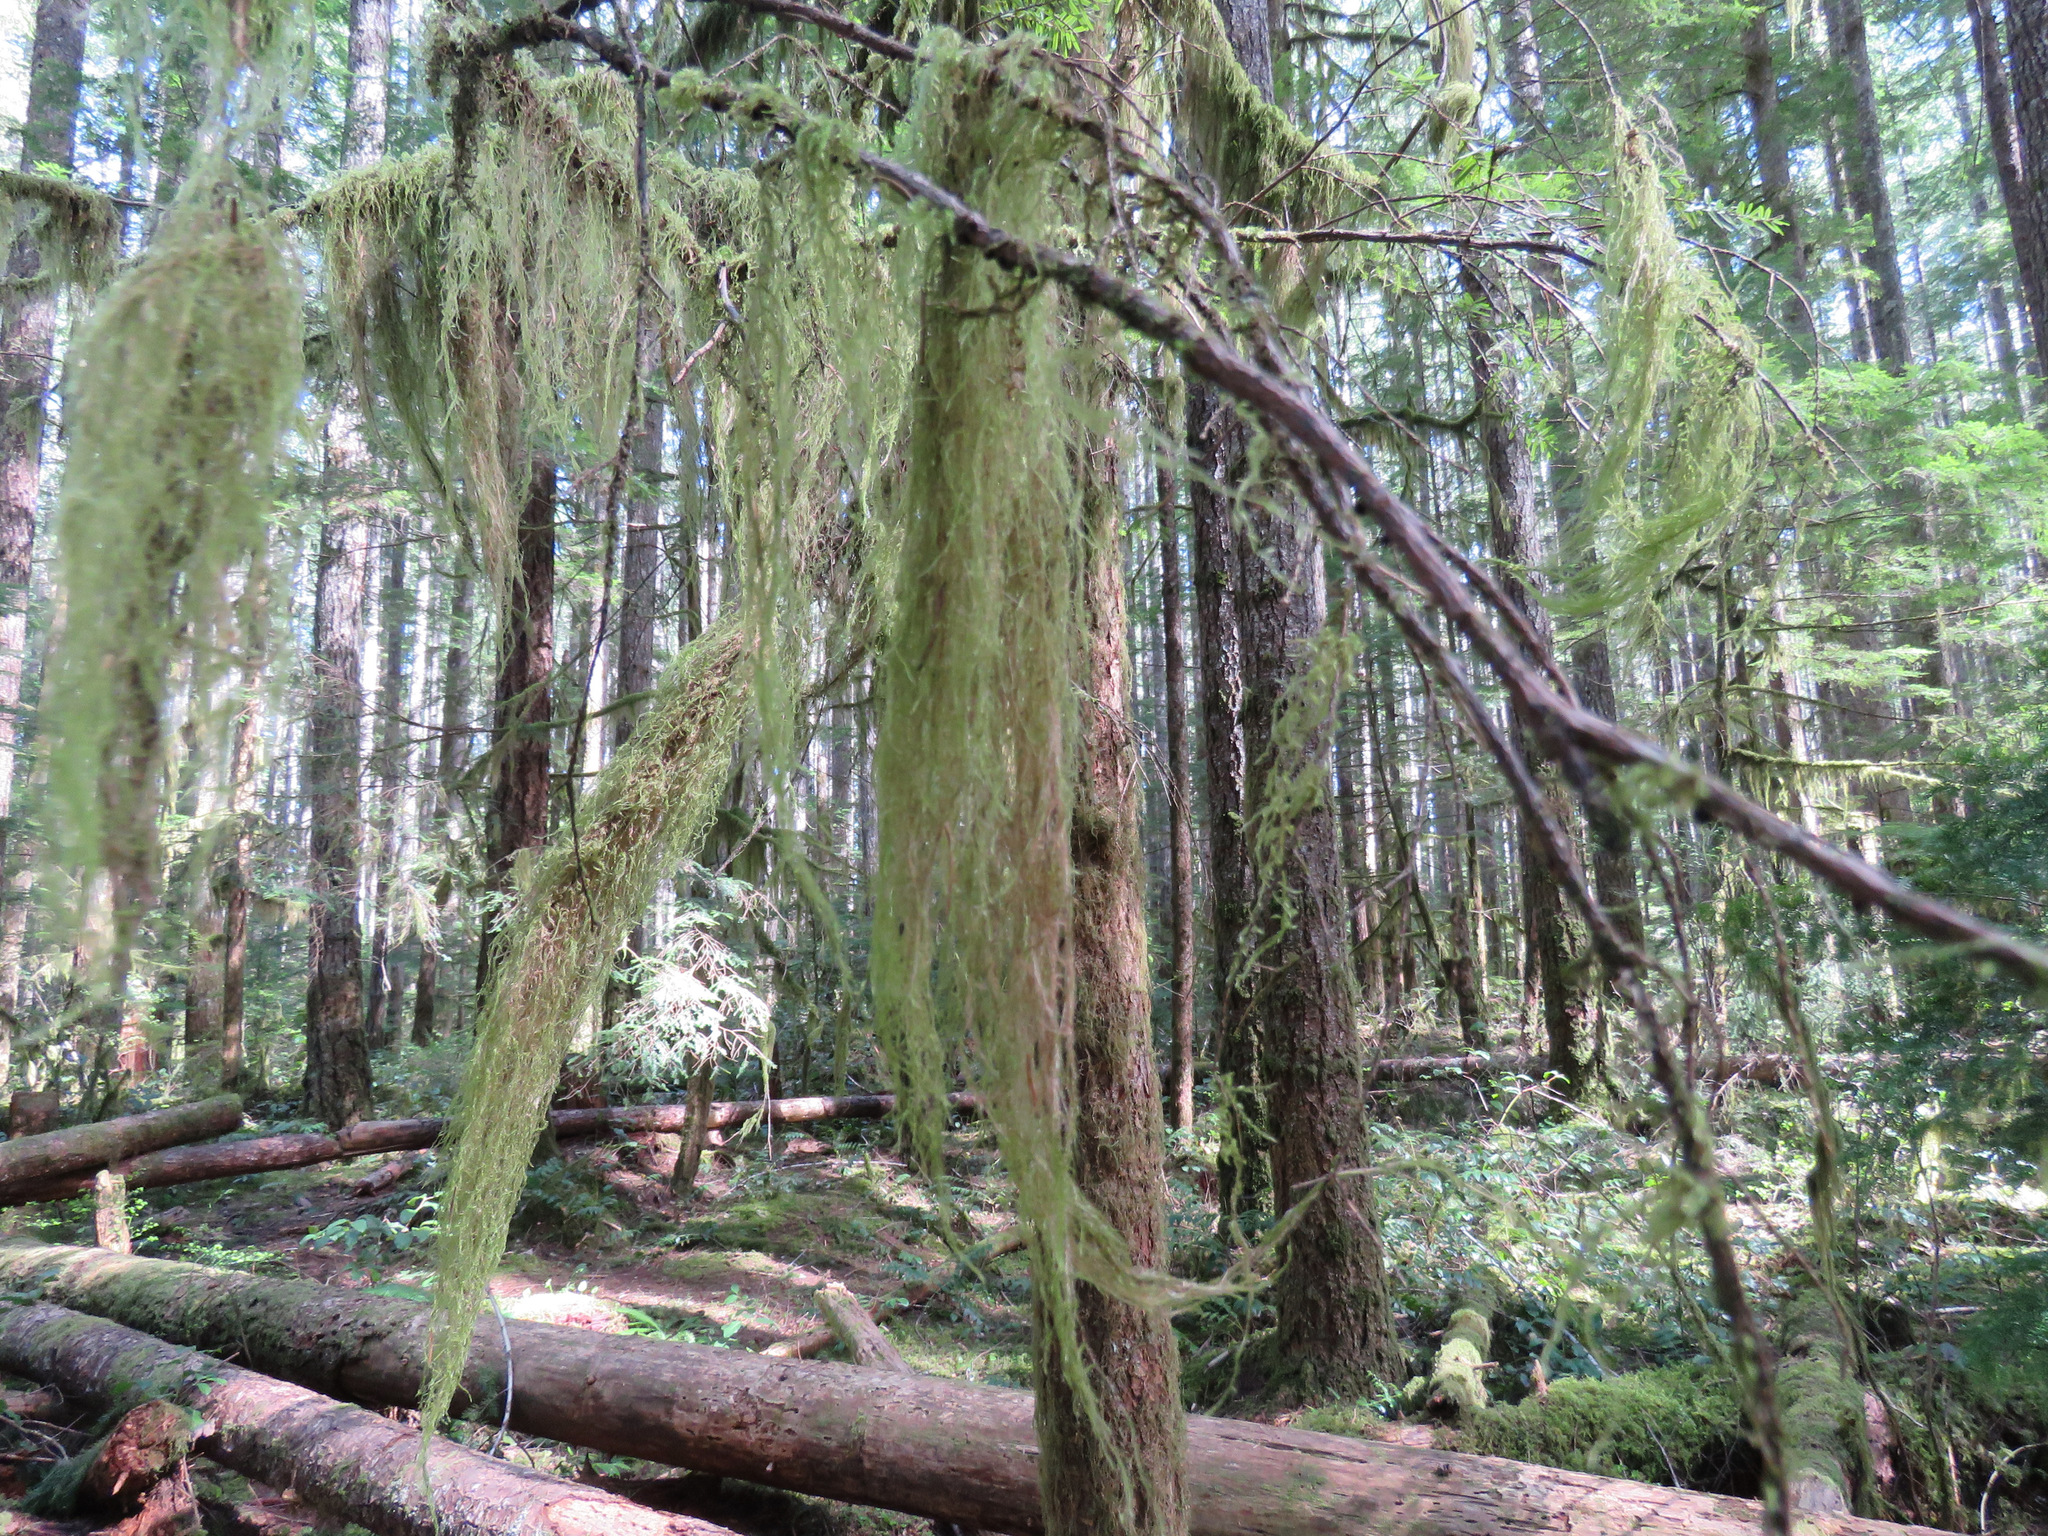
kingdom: Plantae
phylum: Bryophyta
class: Bryopsida
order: Hypnales
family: Lembophyllaceae
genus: Pseudisothecium
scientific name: Pseudisothecium stoloniferum
